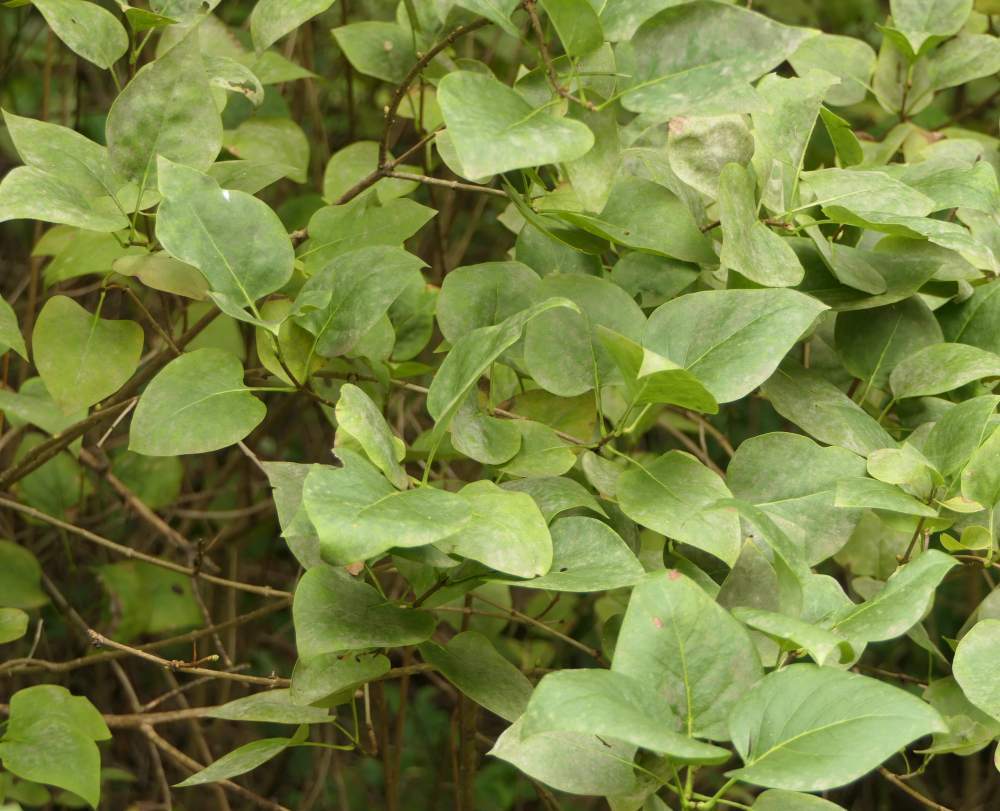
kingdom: Plantae
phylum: Tracheophyta
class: Magnoliopsida
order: Lamiales
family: Oleaceae
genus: Syringa
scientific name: Syringa vulgaris
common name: Common lilac
